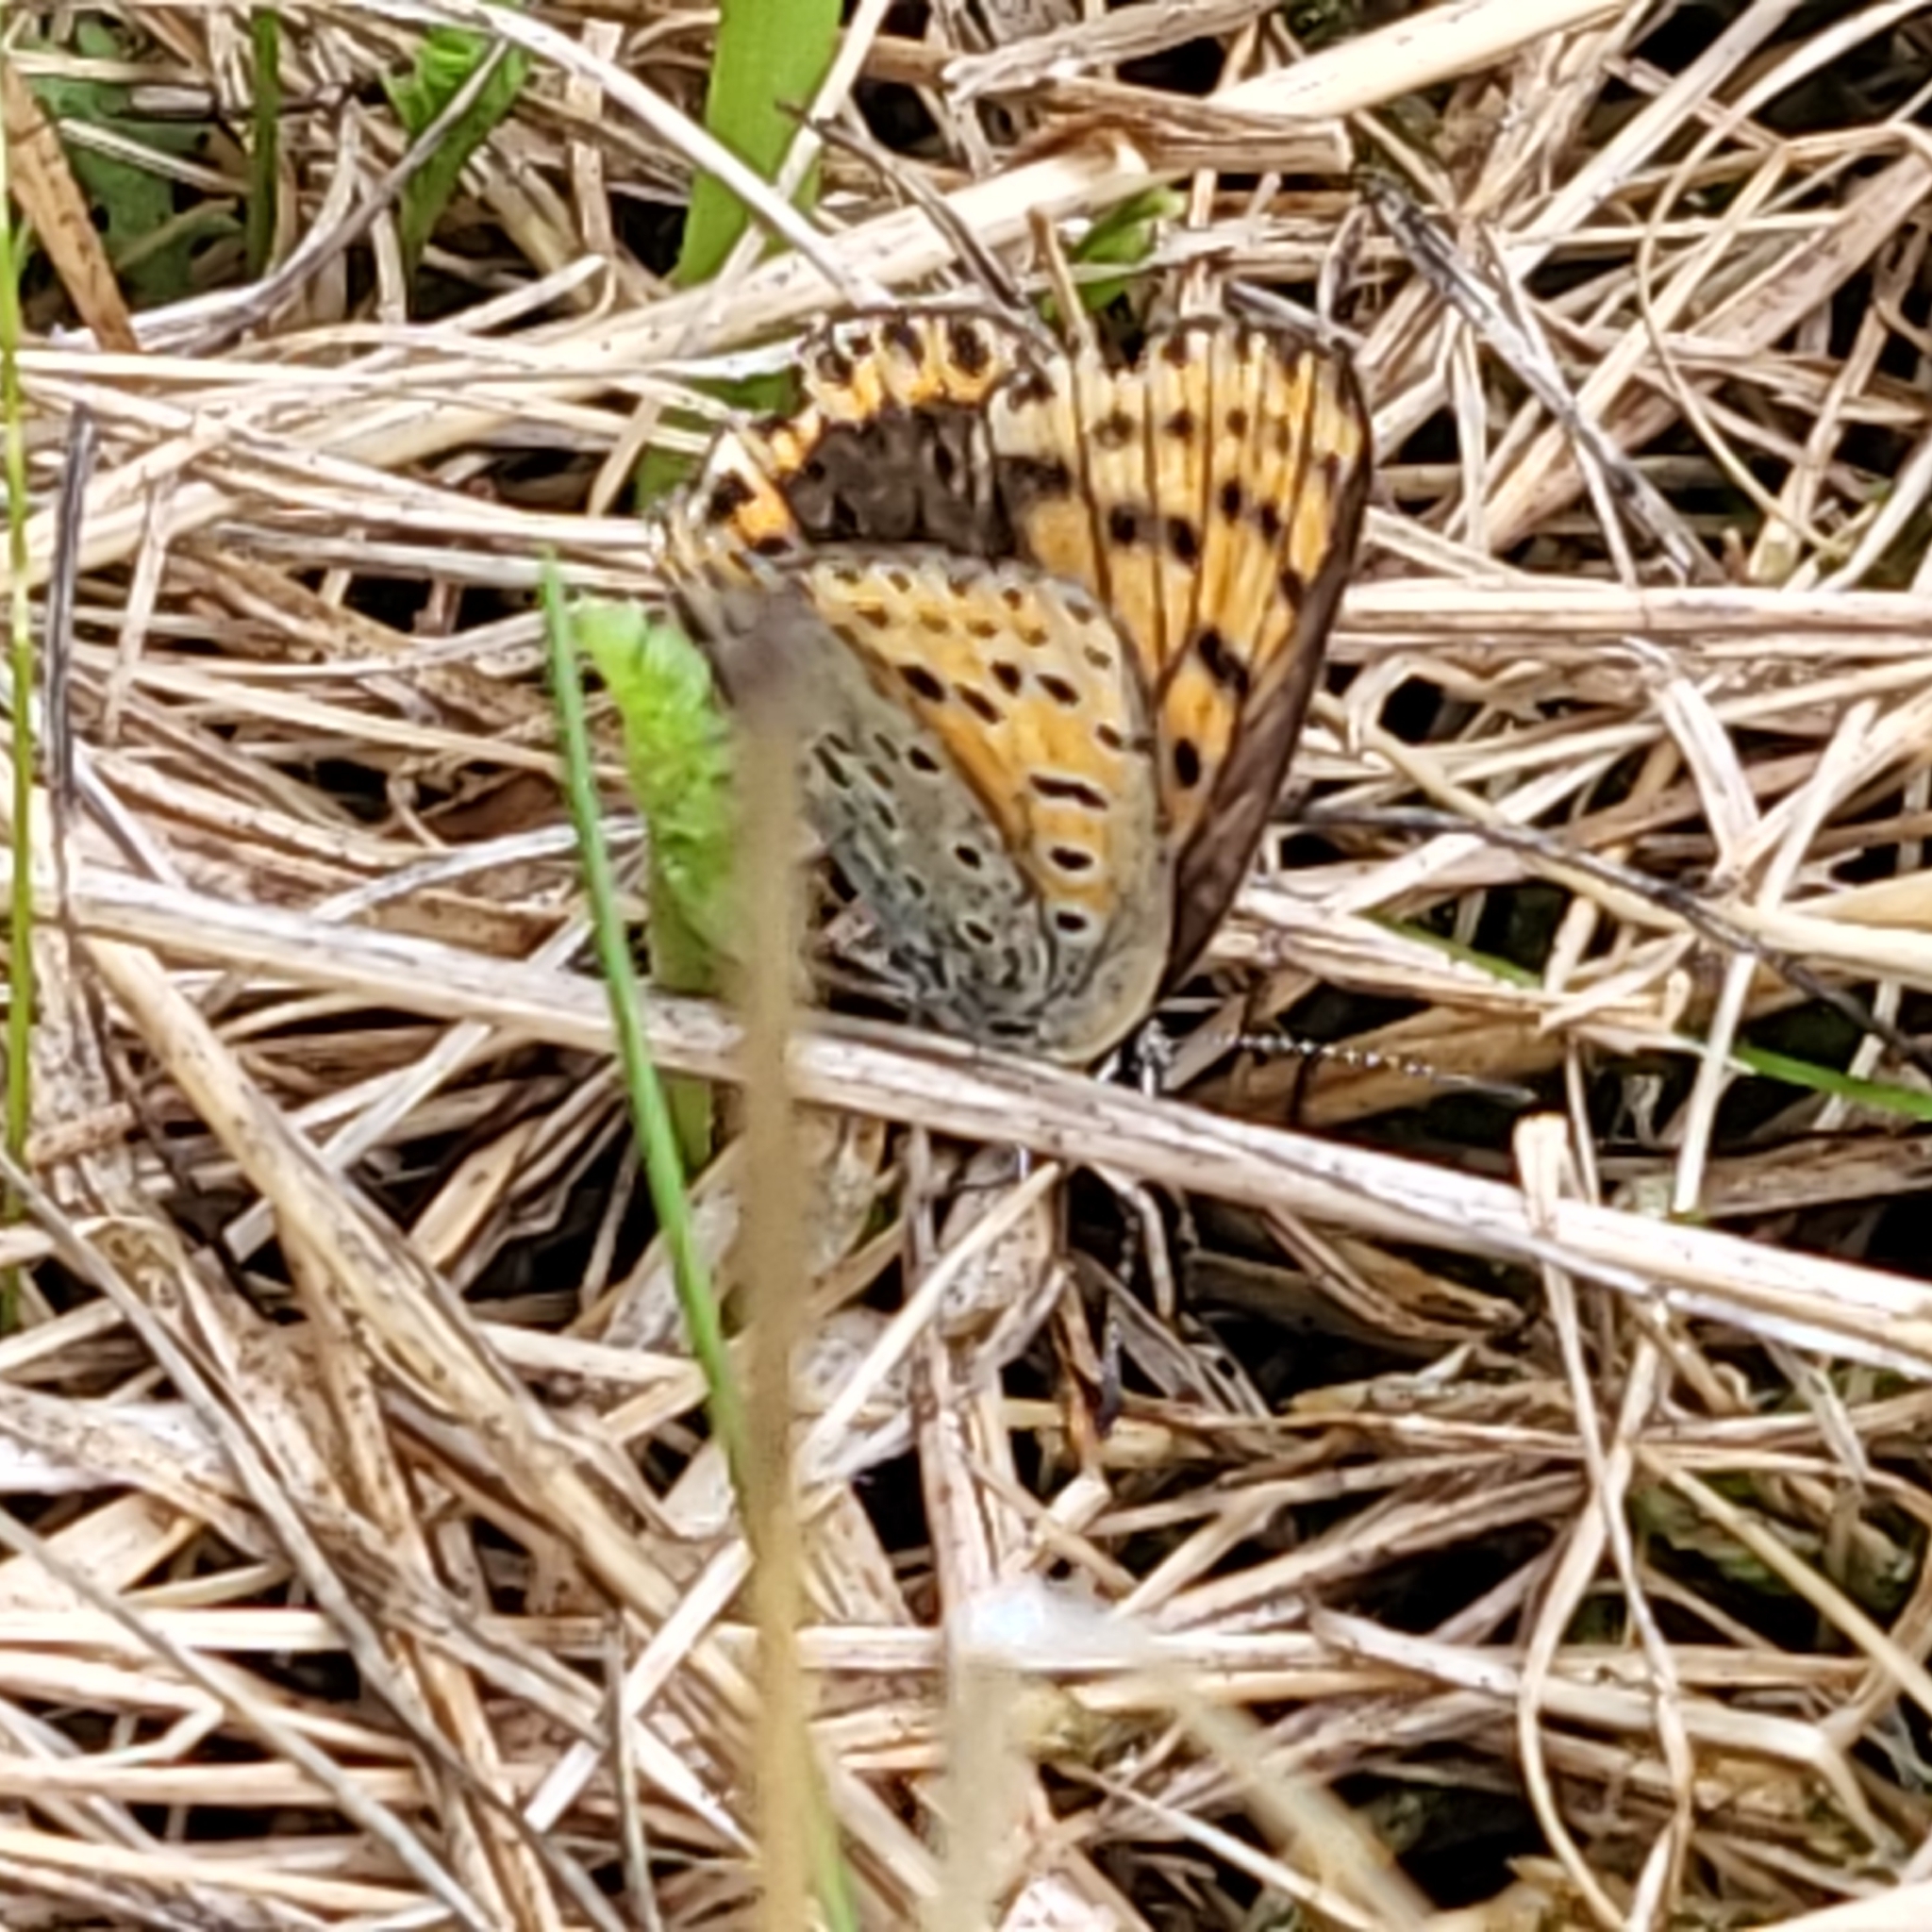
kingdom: Animalia
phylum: Arthropoda
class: Insecta
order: Lepidoptera
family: Lycaenidae
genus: Loweia
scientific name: Loweia tityrus
